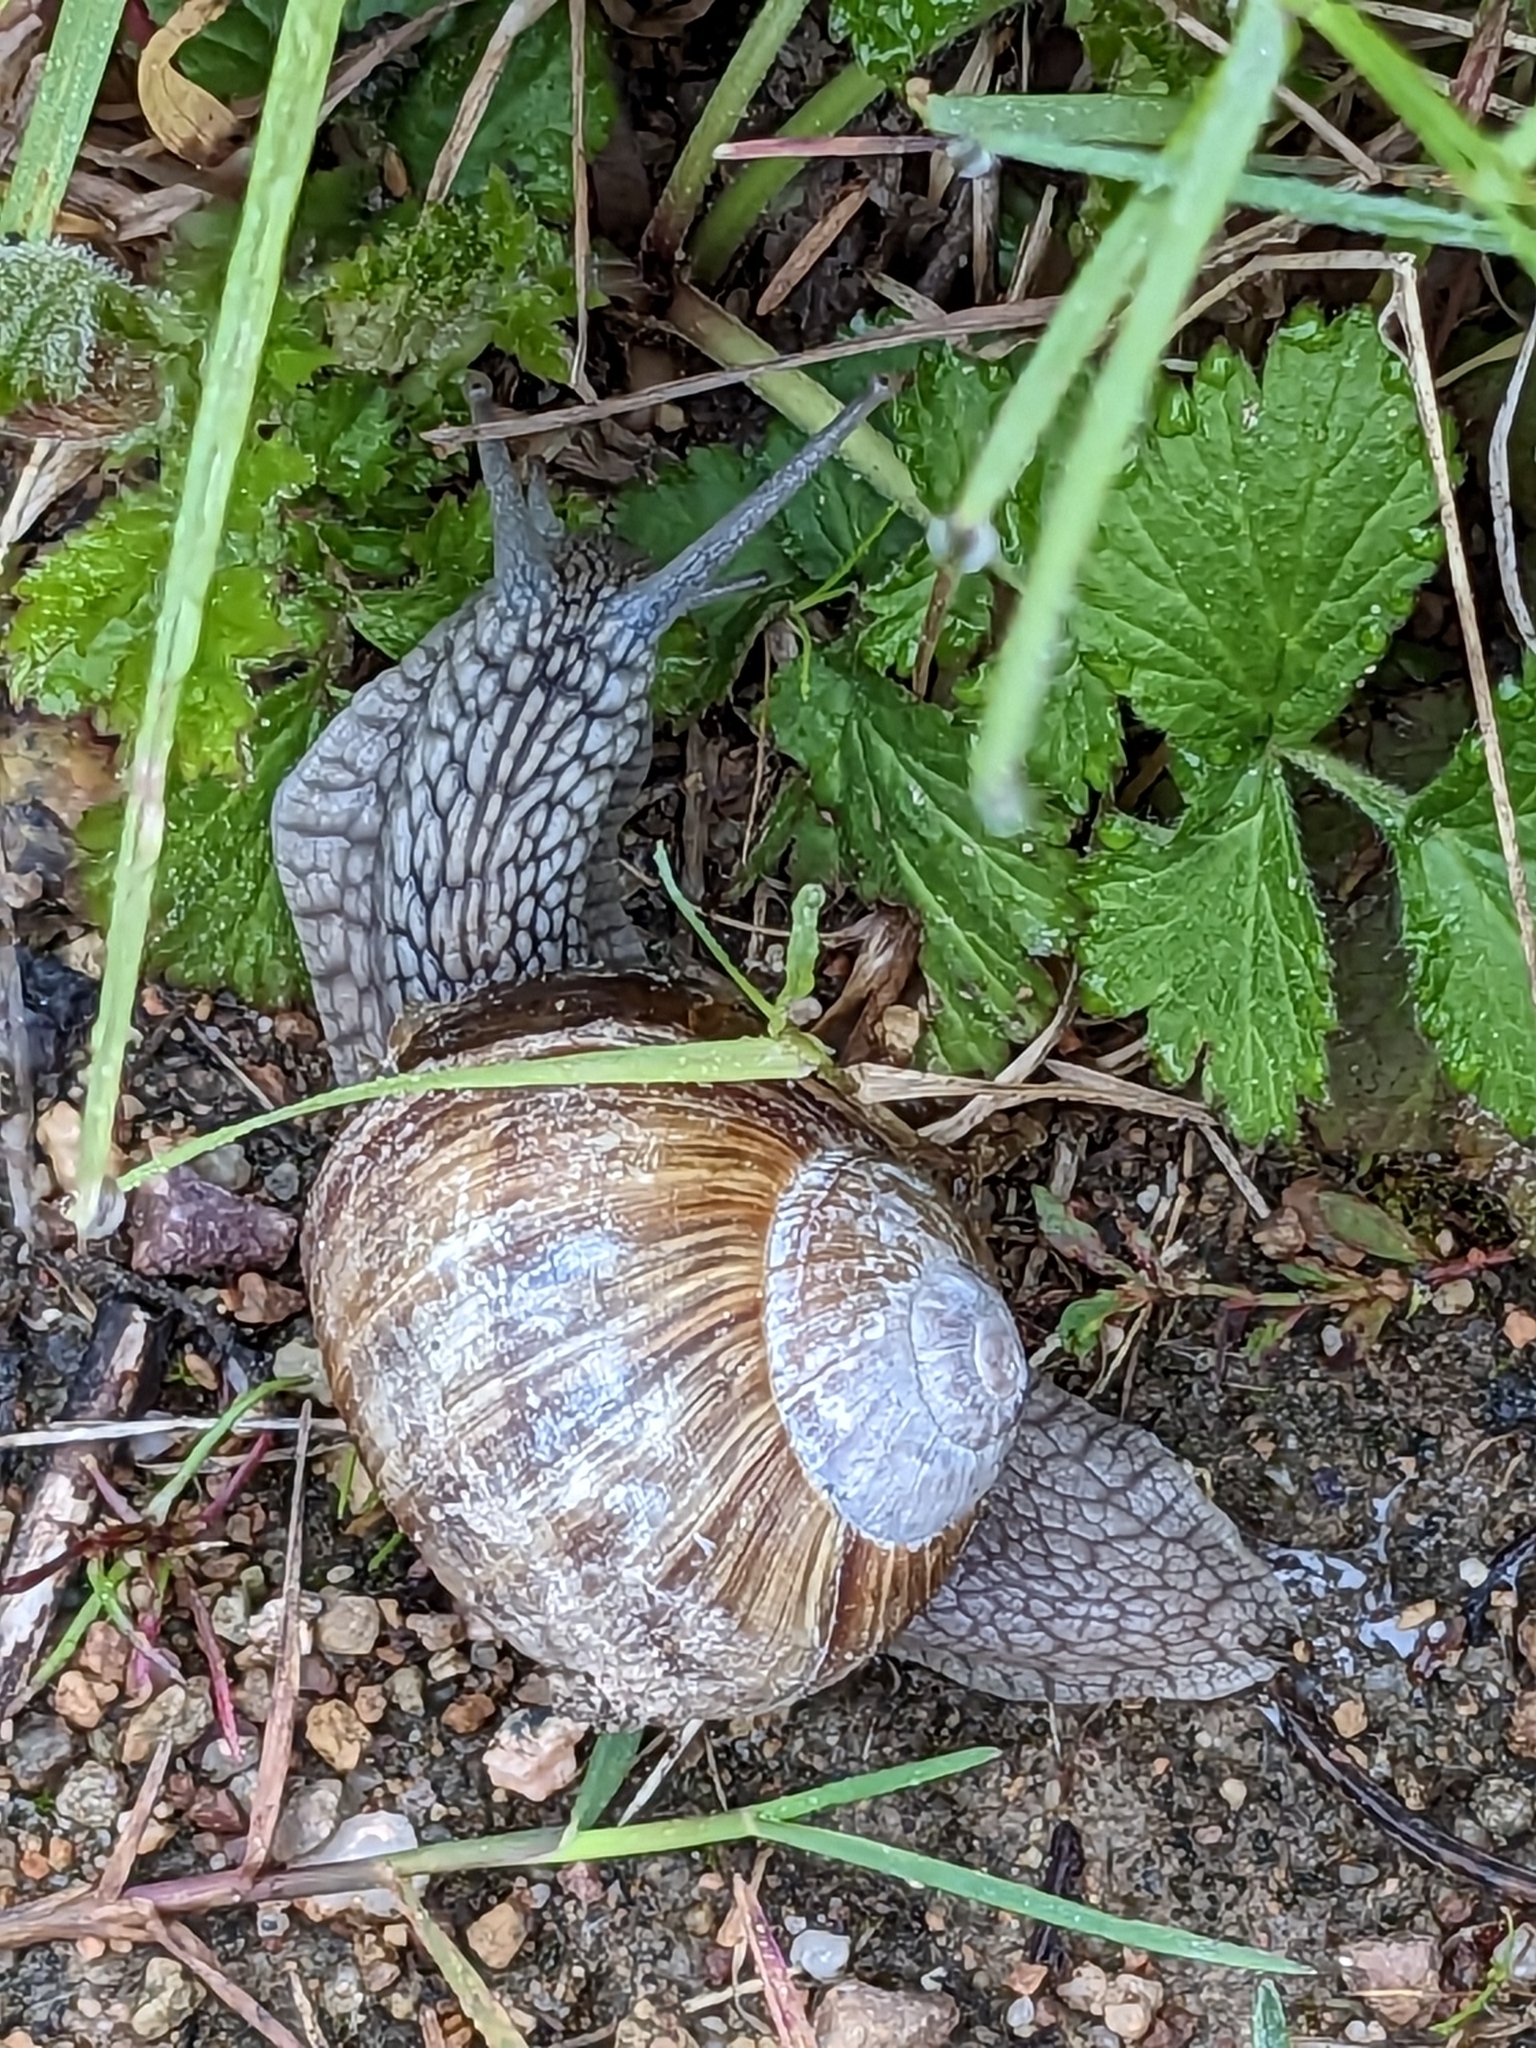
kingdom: Animalia
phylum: Mollusca
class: Gastropoda
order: Stylommatophora
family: Helicidae
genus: Helix
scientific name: Helix pomatia
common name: Roman snail
